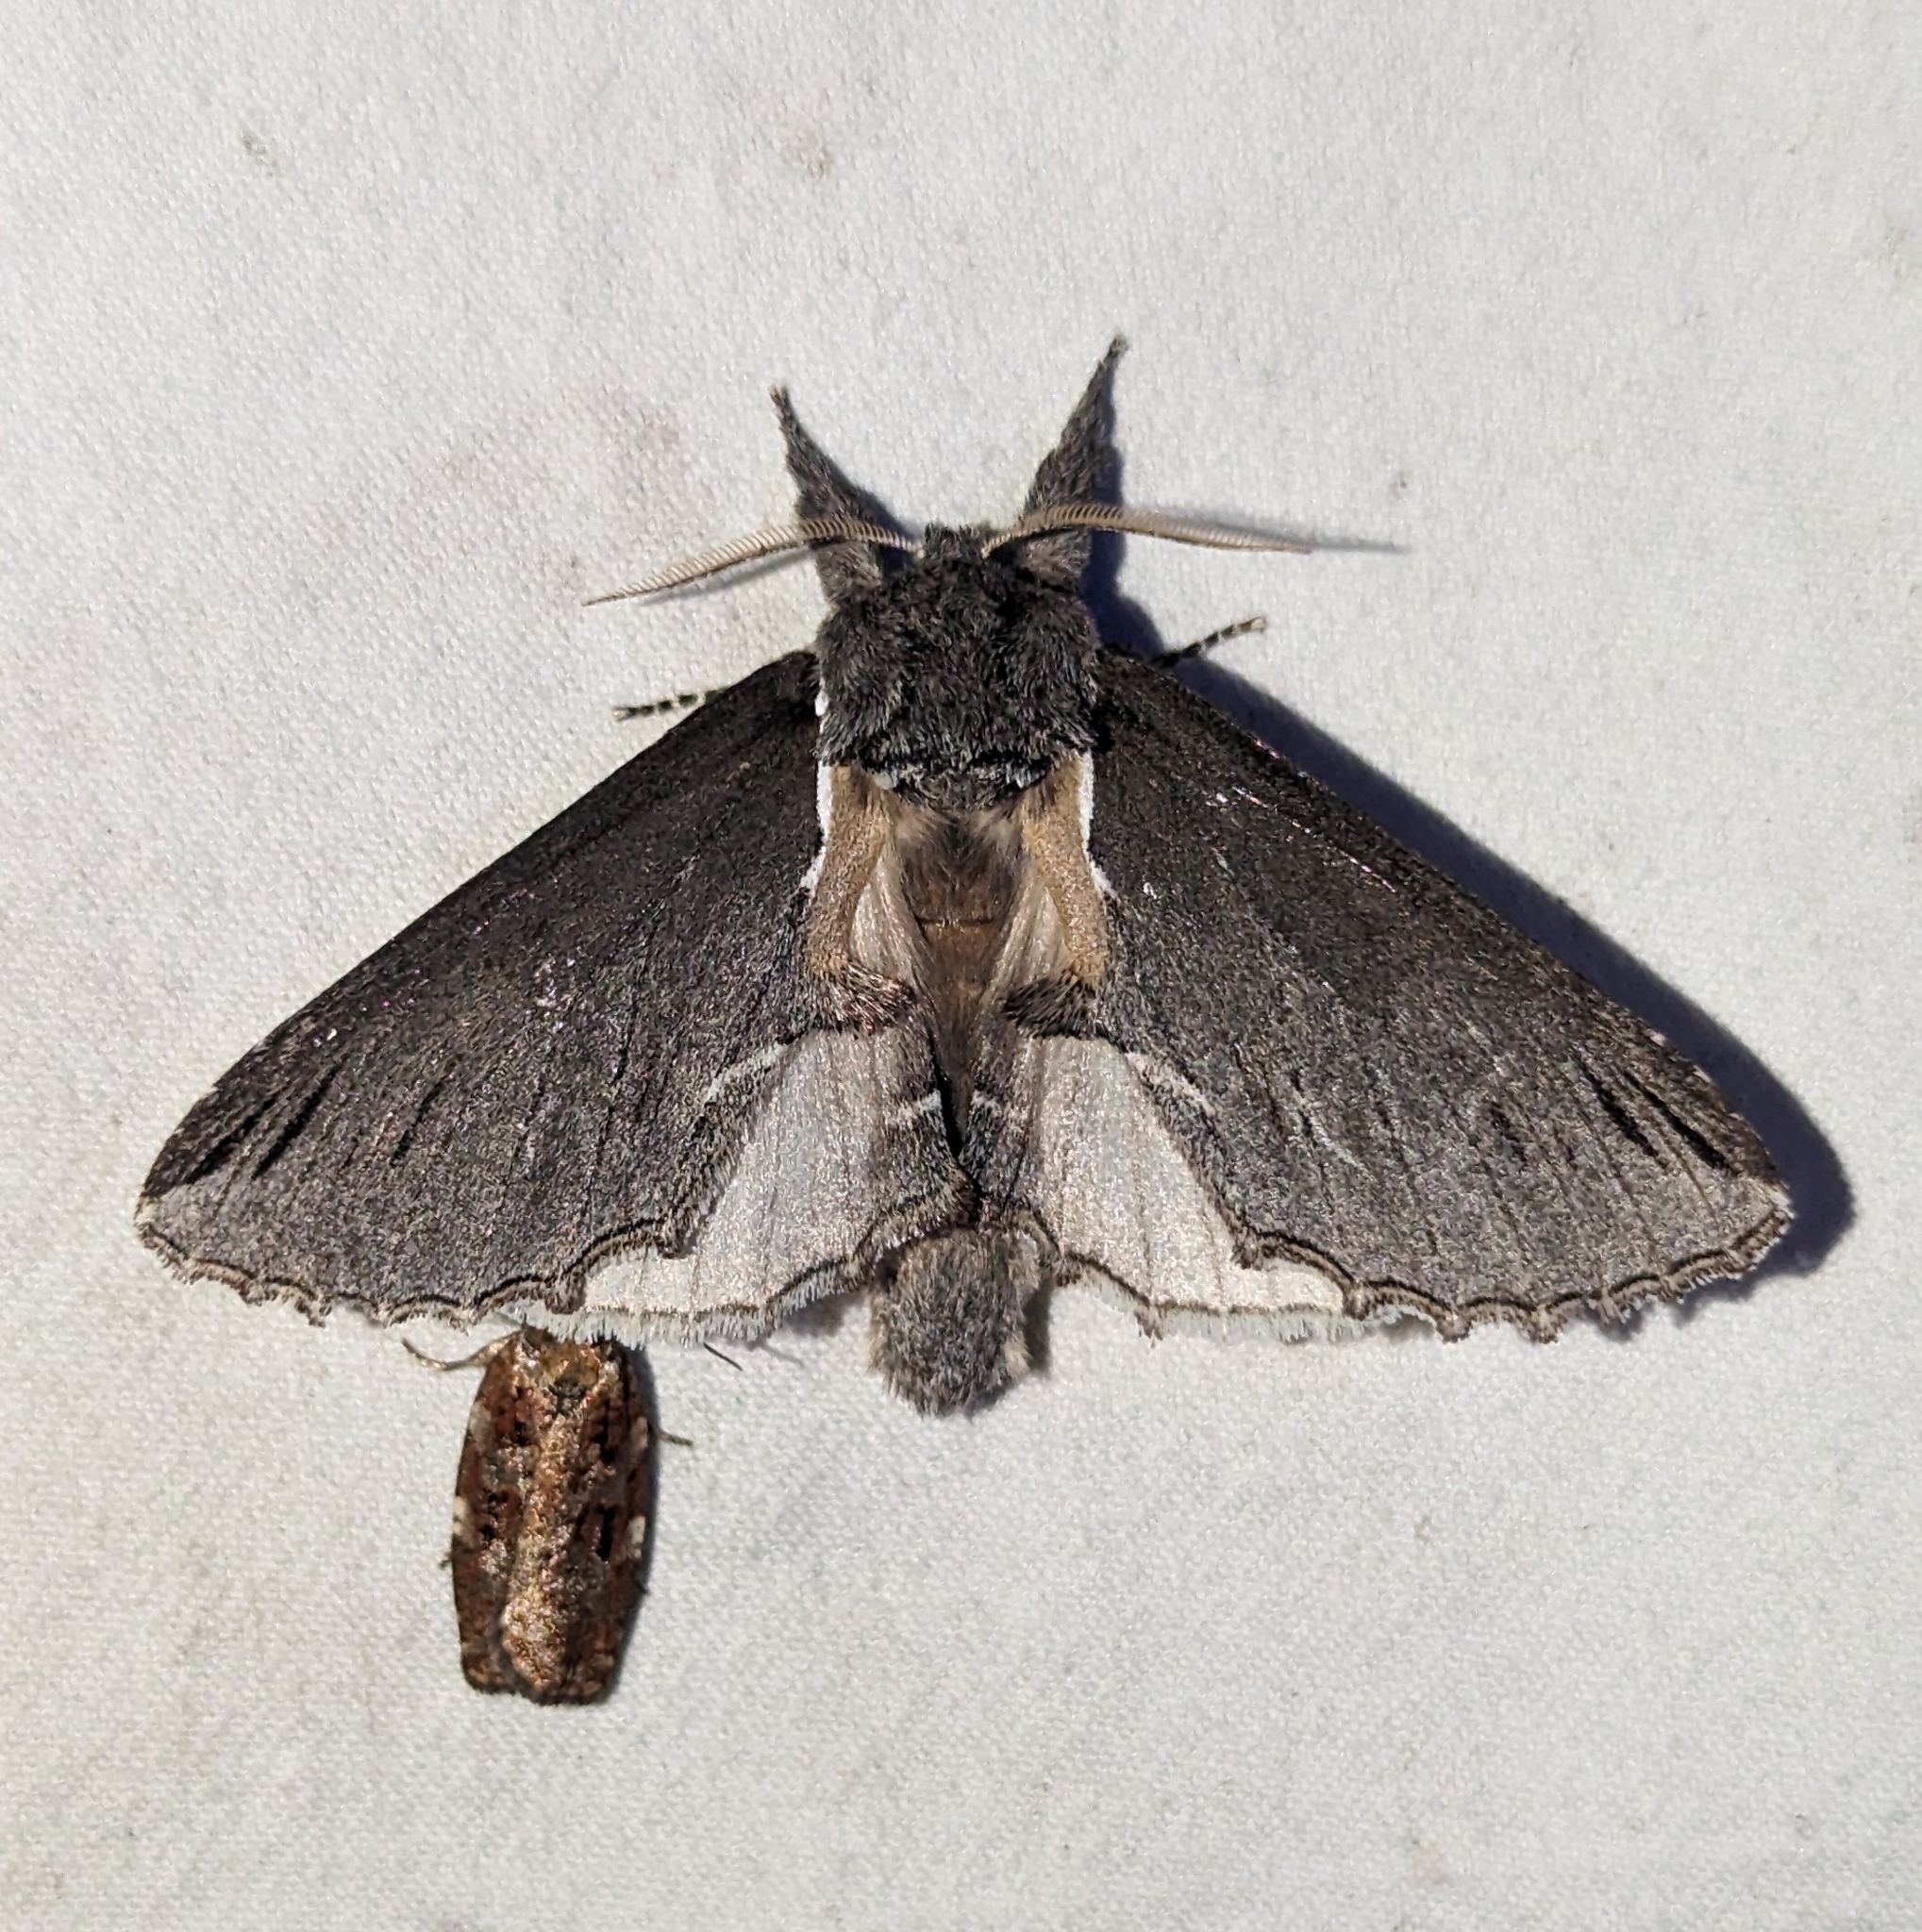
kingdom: Animalia
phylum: Arthropoda
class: Insecta
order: Lepidoptera
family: Notodontidae
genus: Pheosidea
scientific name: Pheosidea elegans
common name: Elegant prominent
